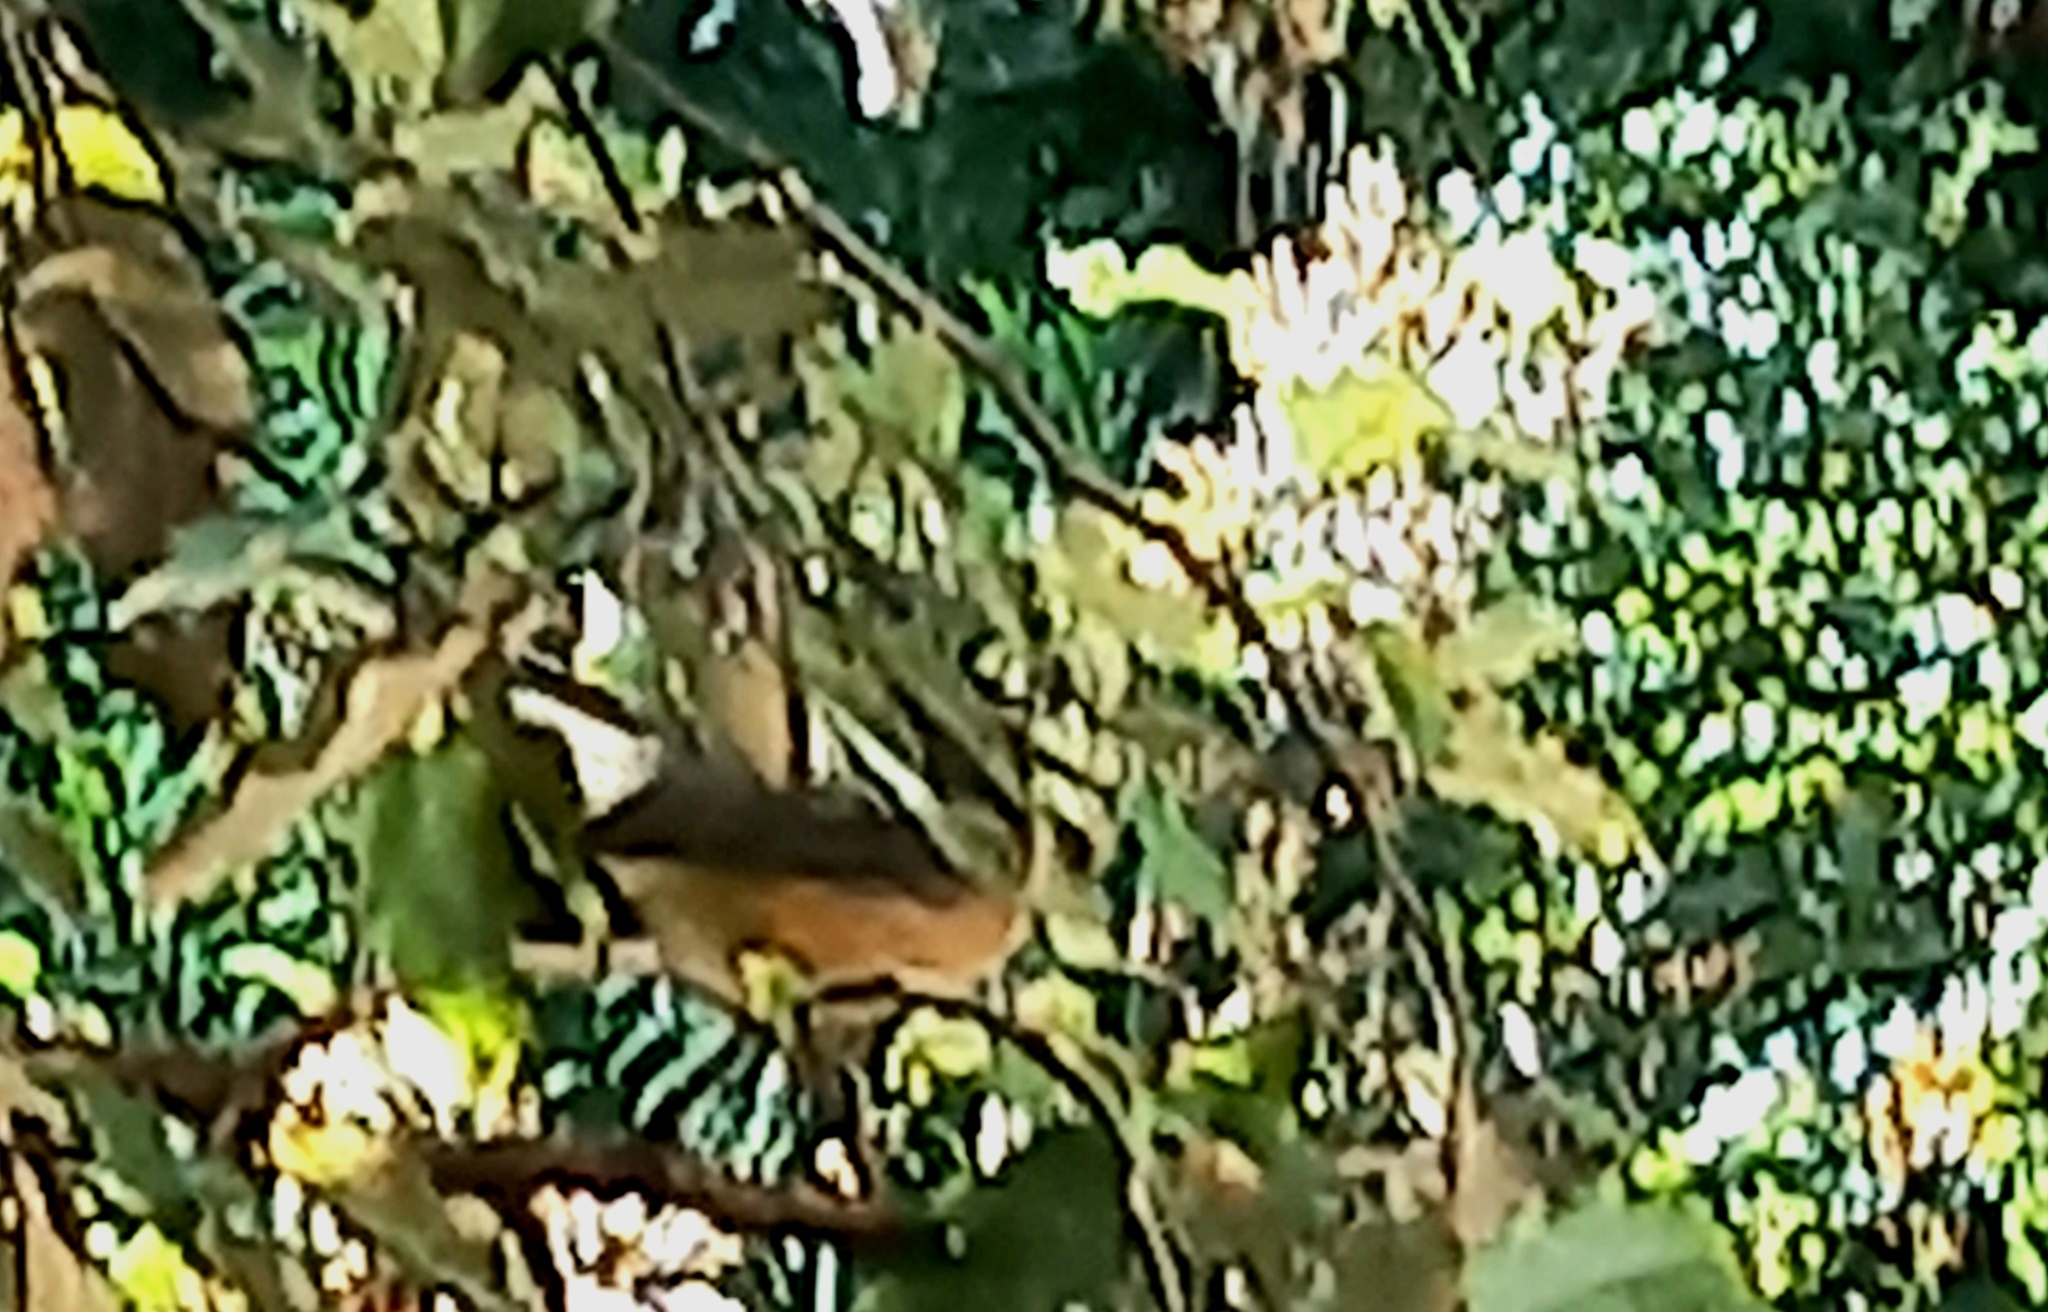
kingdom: Animalia
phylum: Chordata
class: Aves
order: Passeriformes
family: Rhipiduridae
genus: Rhipidura
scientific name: Rhipidura fuliginosa
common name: New zealand fantail
